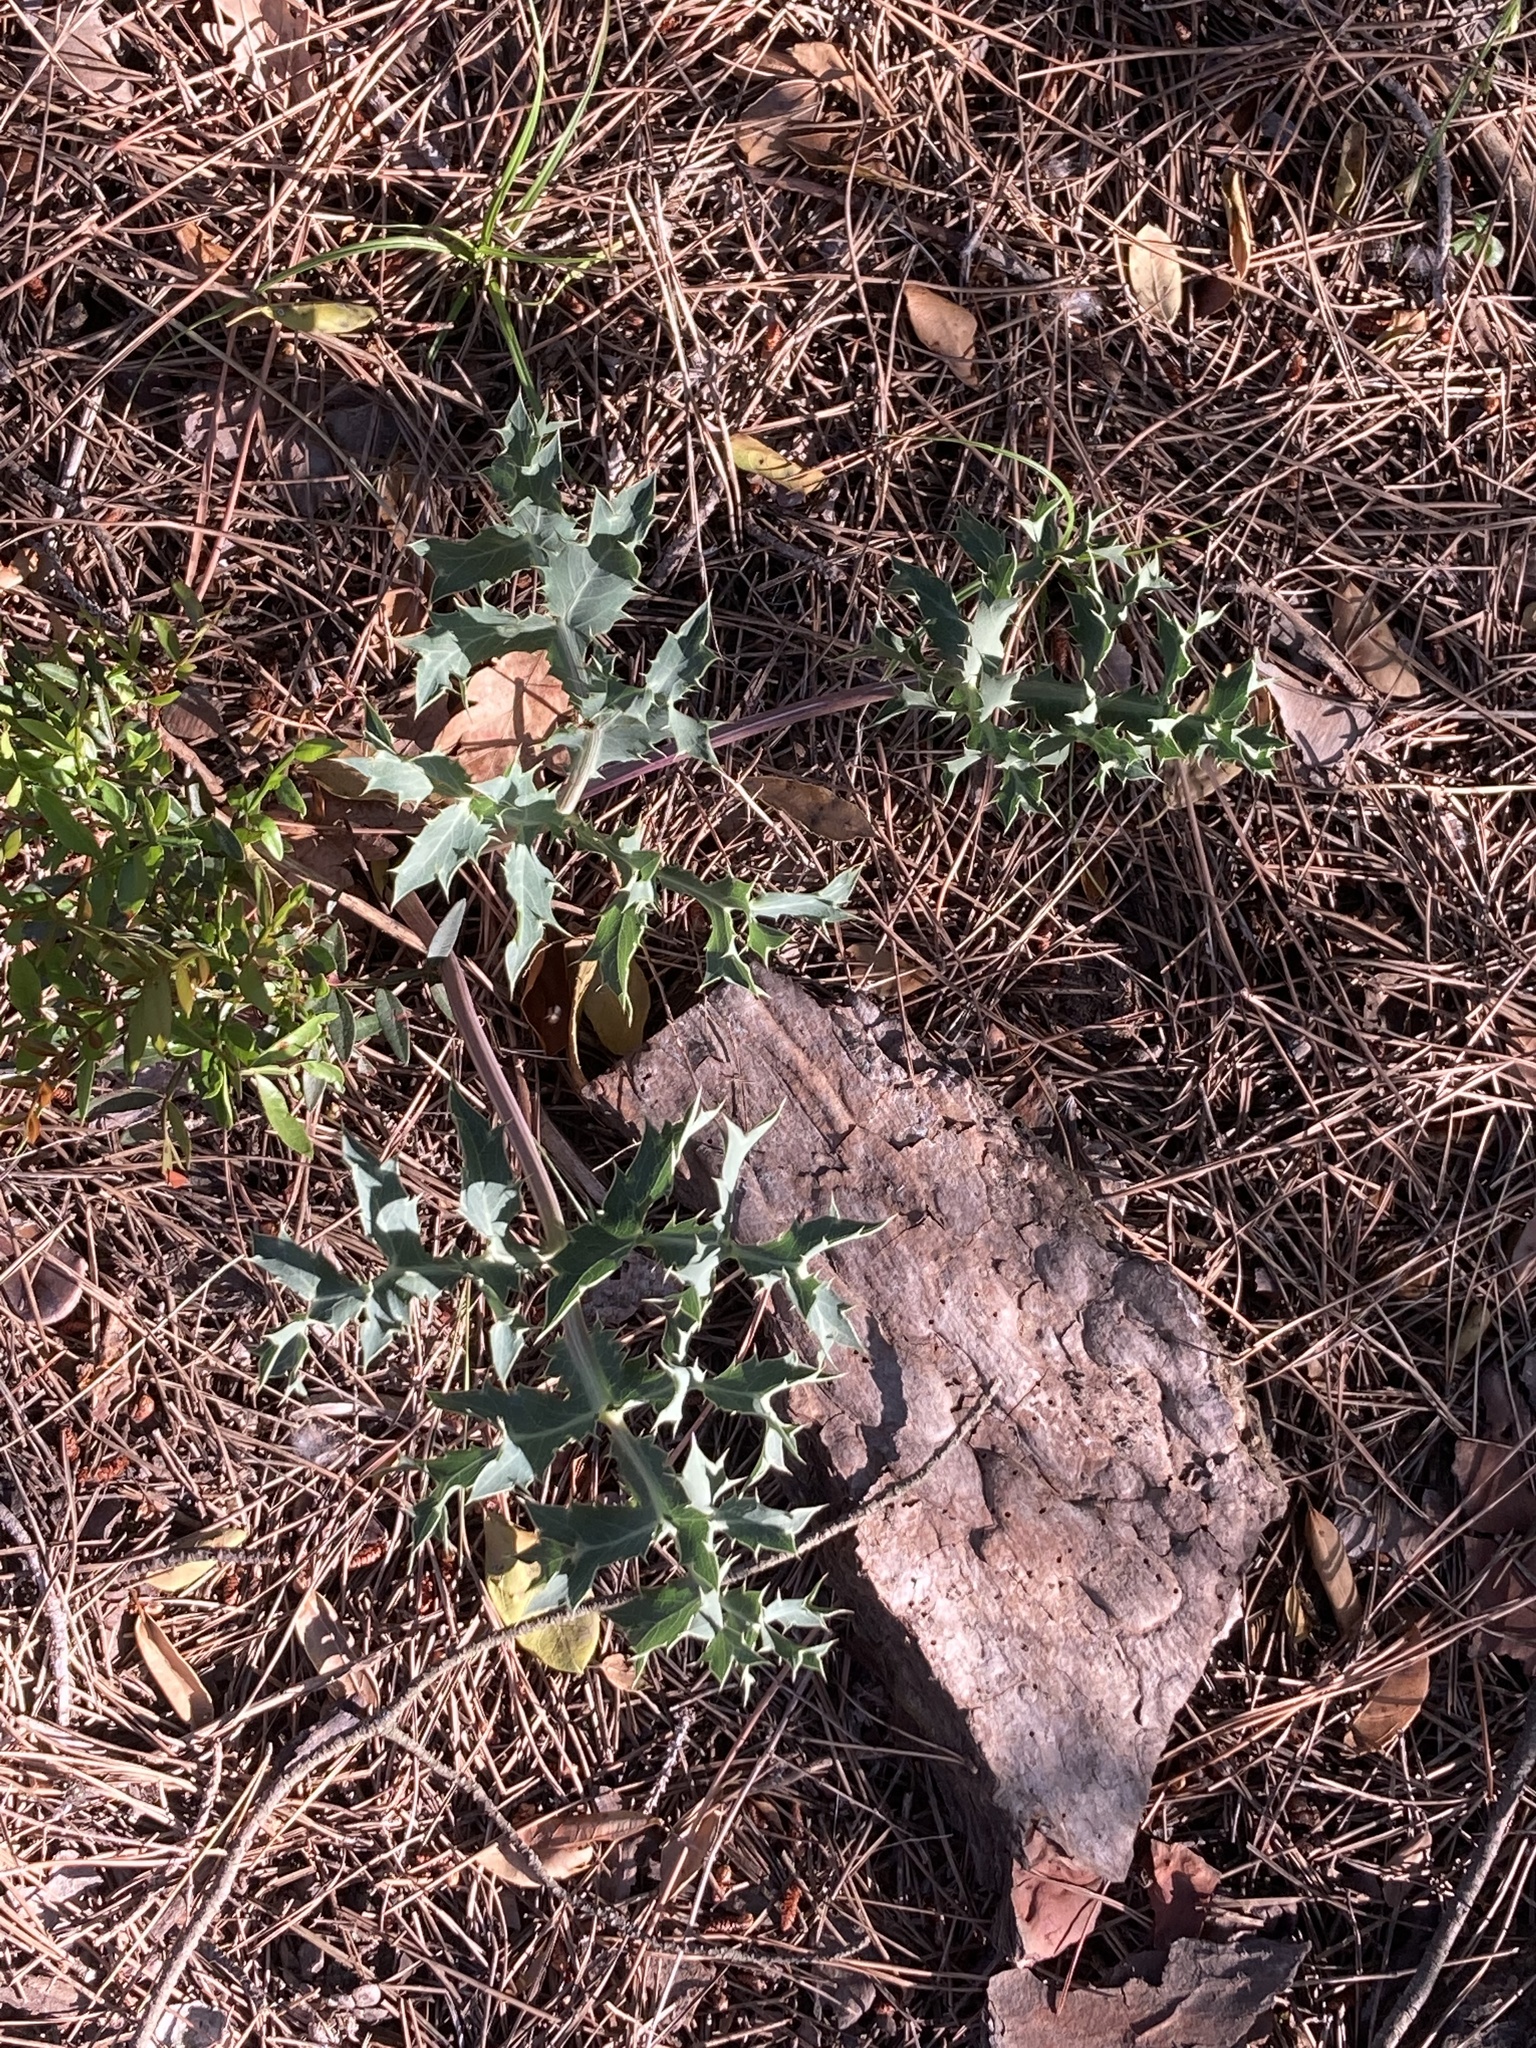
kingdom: Plantae
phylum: Tracheophyta
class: Magnoliopsida
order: Apiales
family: Apiaceae
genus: Eryngium
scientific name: Eryngium campestre
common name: Field eryngo
